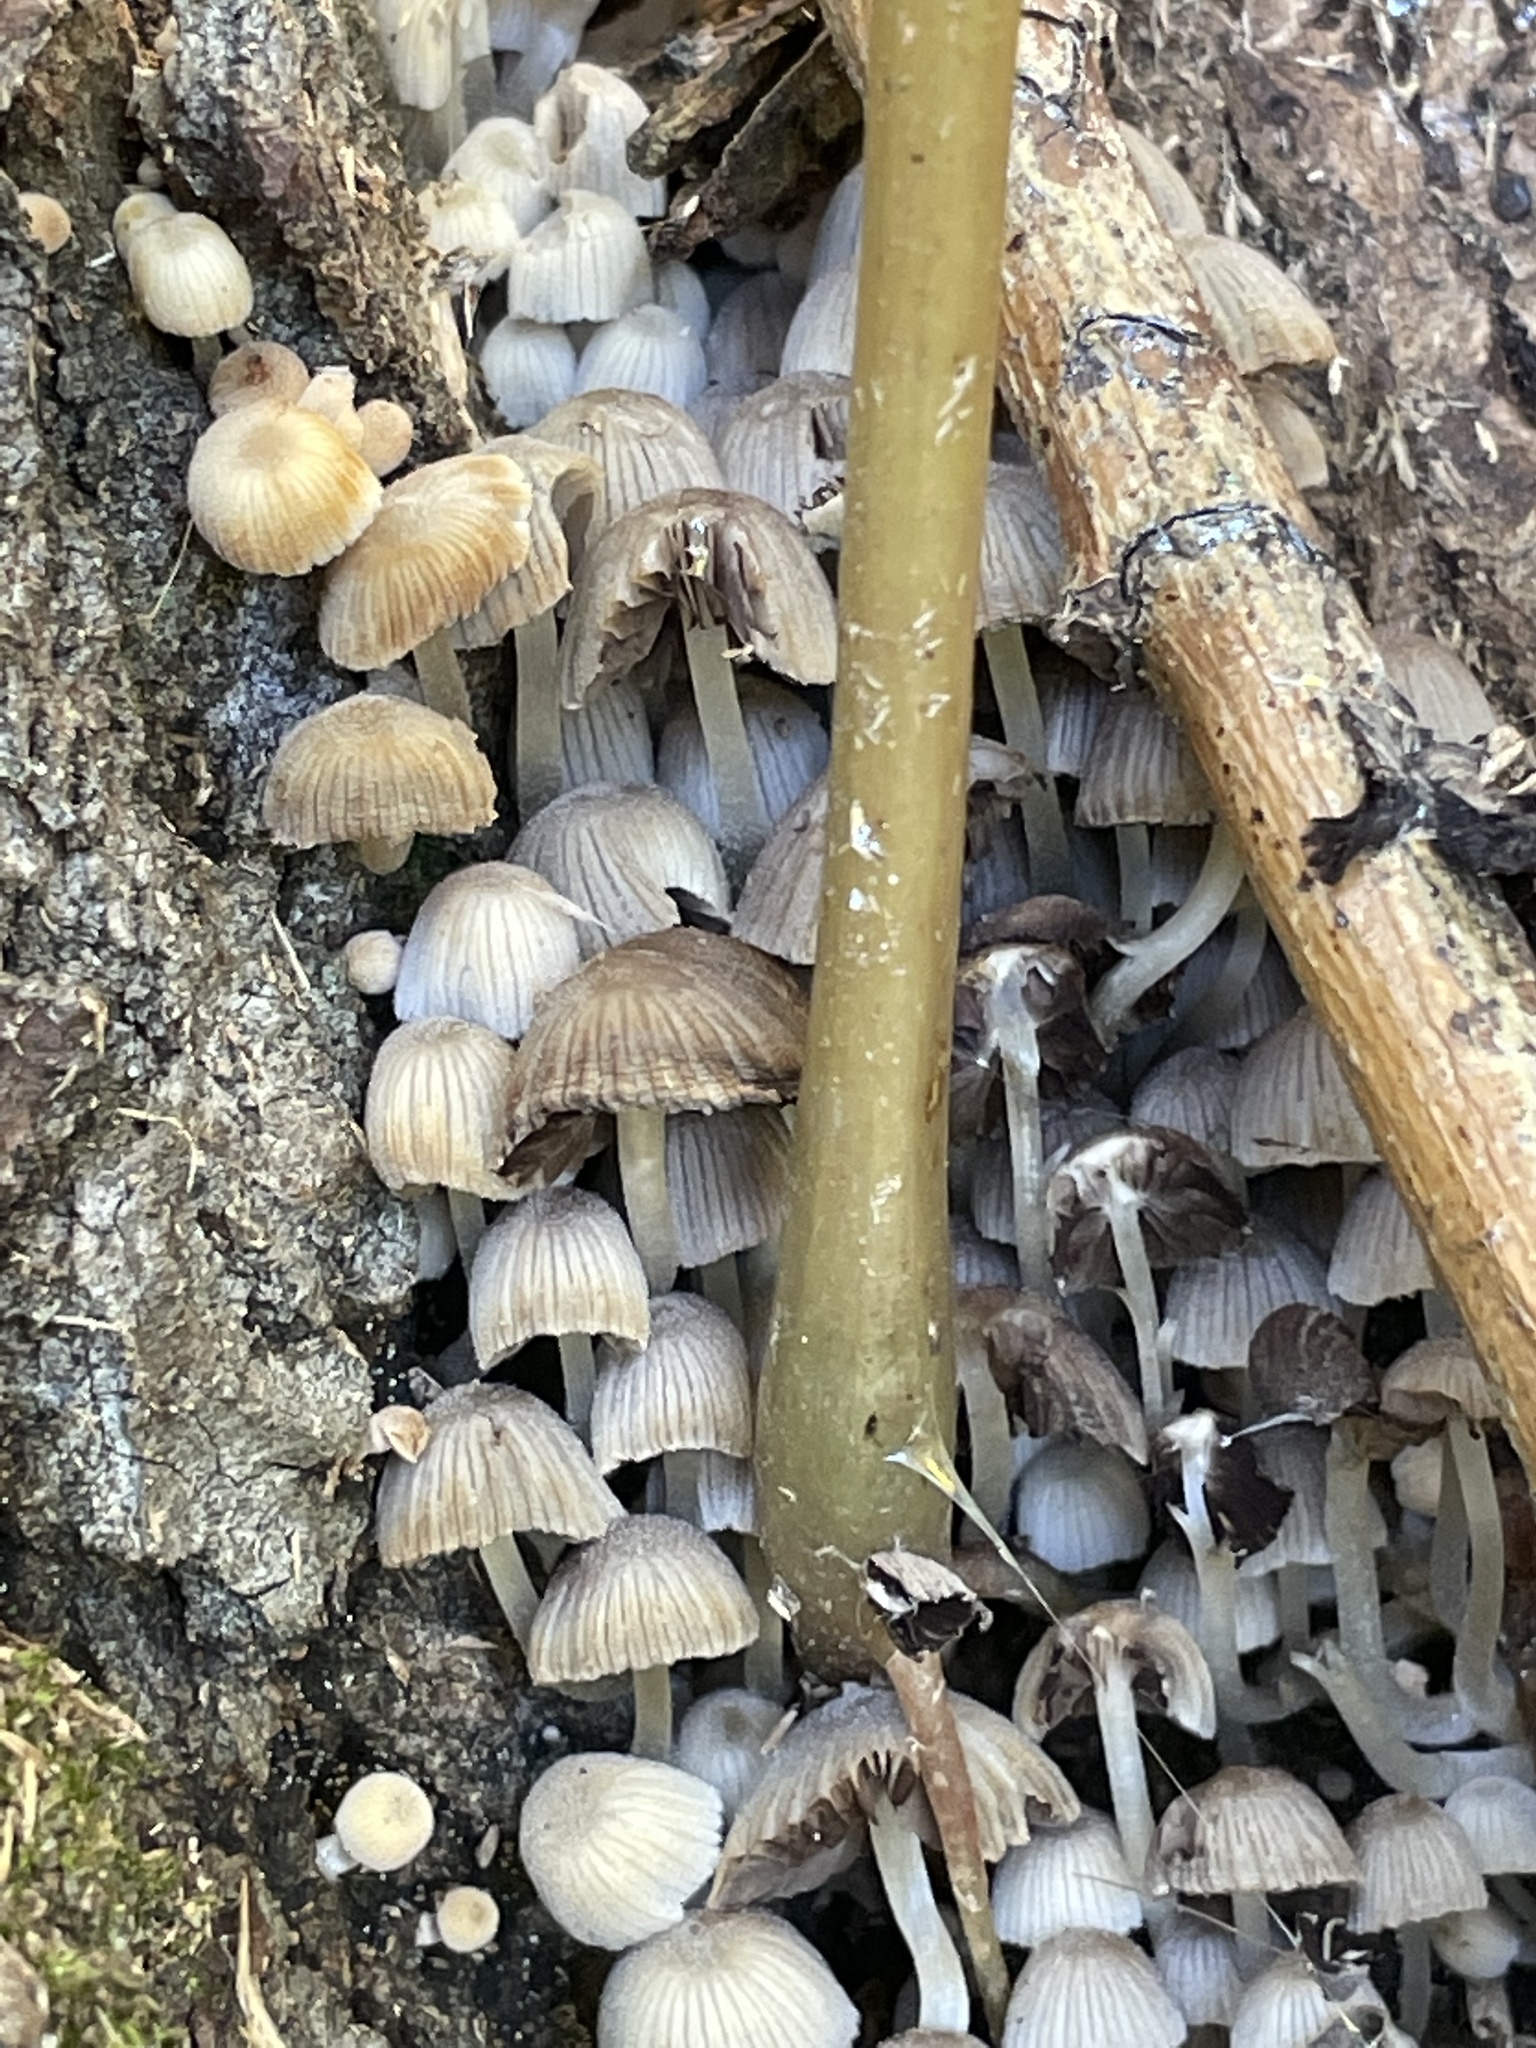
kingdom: Fungi
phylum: Basidiomycota
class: Agaricomycetes
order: Agaricales
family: Psathyrellaceae
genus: Coprinellus
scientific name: Coprinellus disseminatus
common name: Fairies' bonnets
